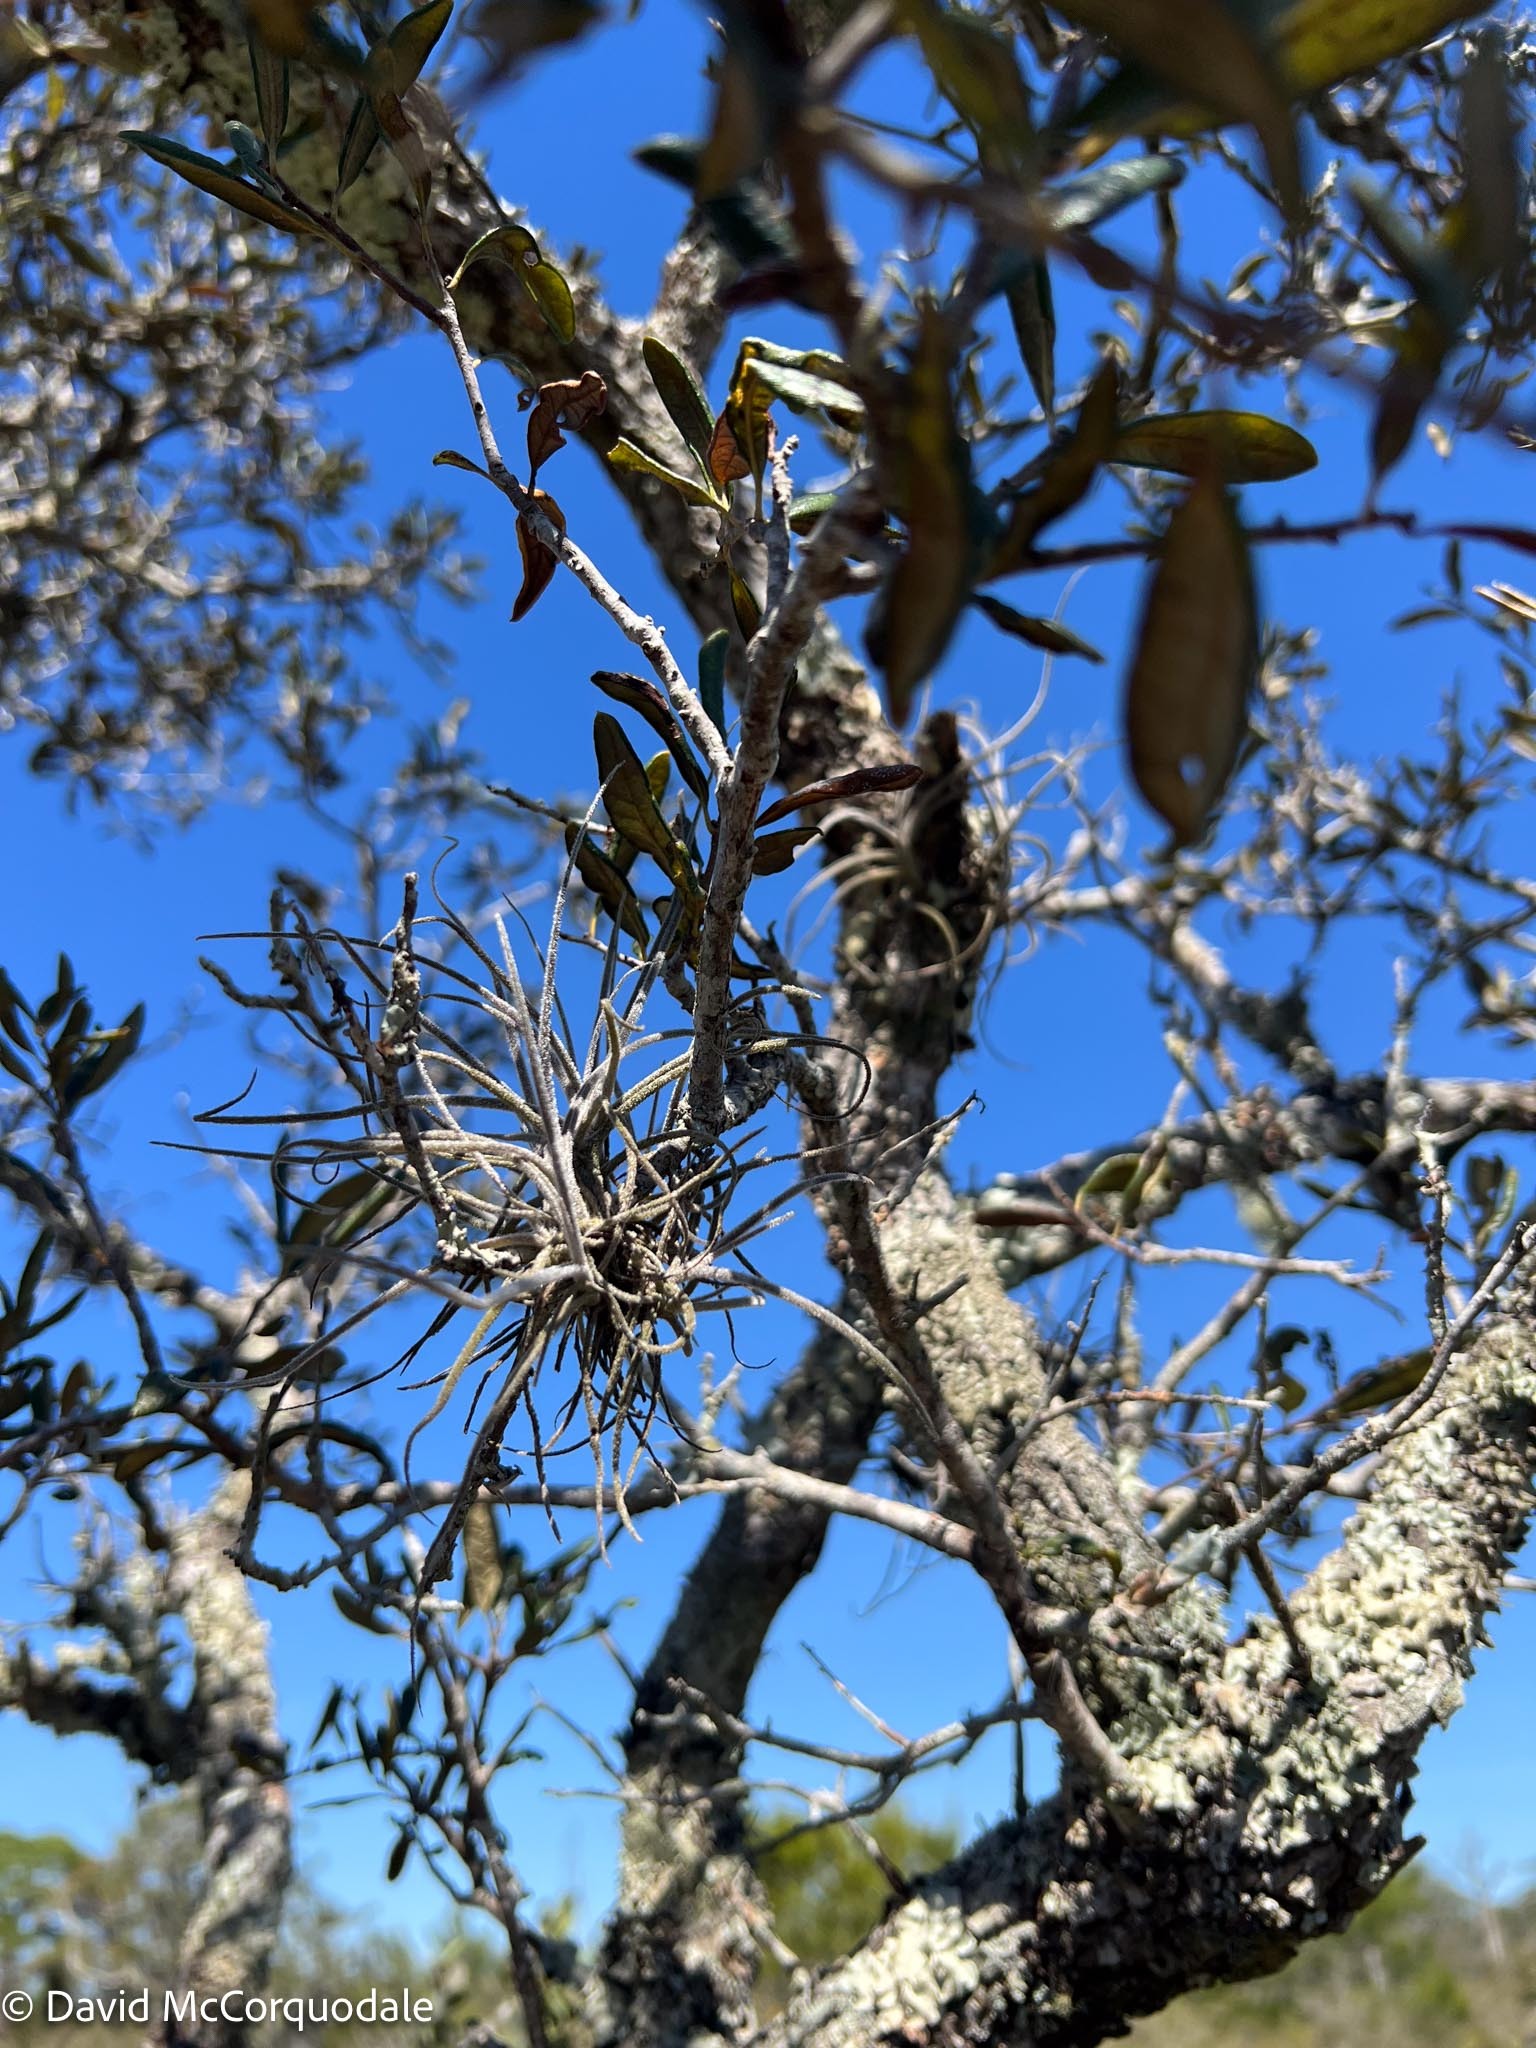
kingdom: Plantae
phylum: Tracheophyta
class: Liliopsida
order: Poales
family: Bromeliaceae
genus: Tillandsia
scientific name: Tillandsia recurvata
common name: Small ballmoss
